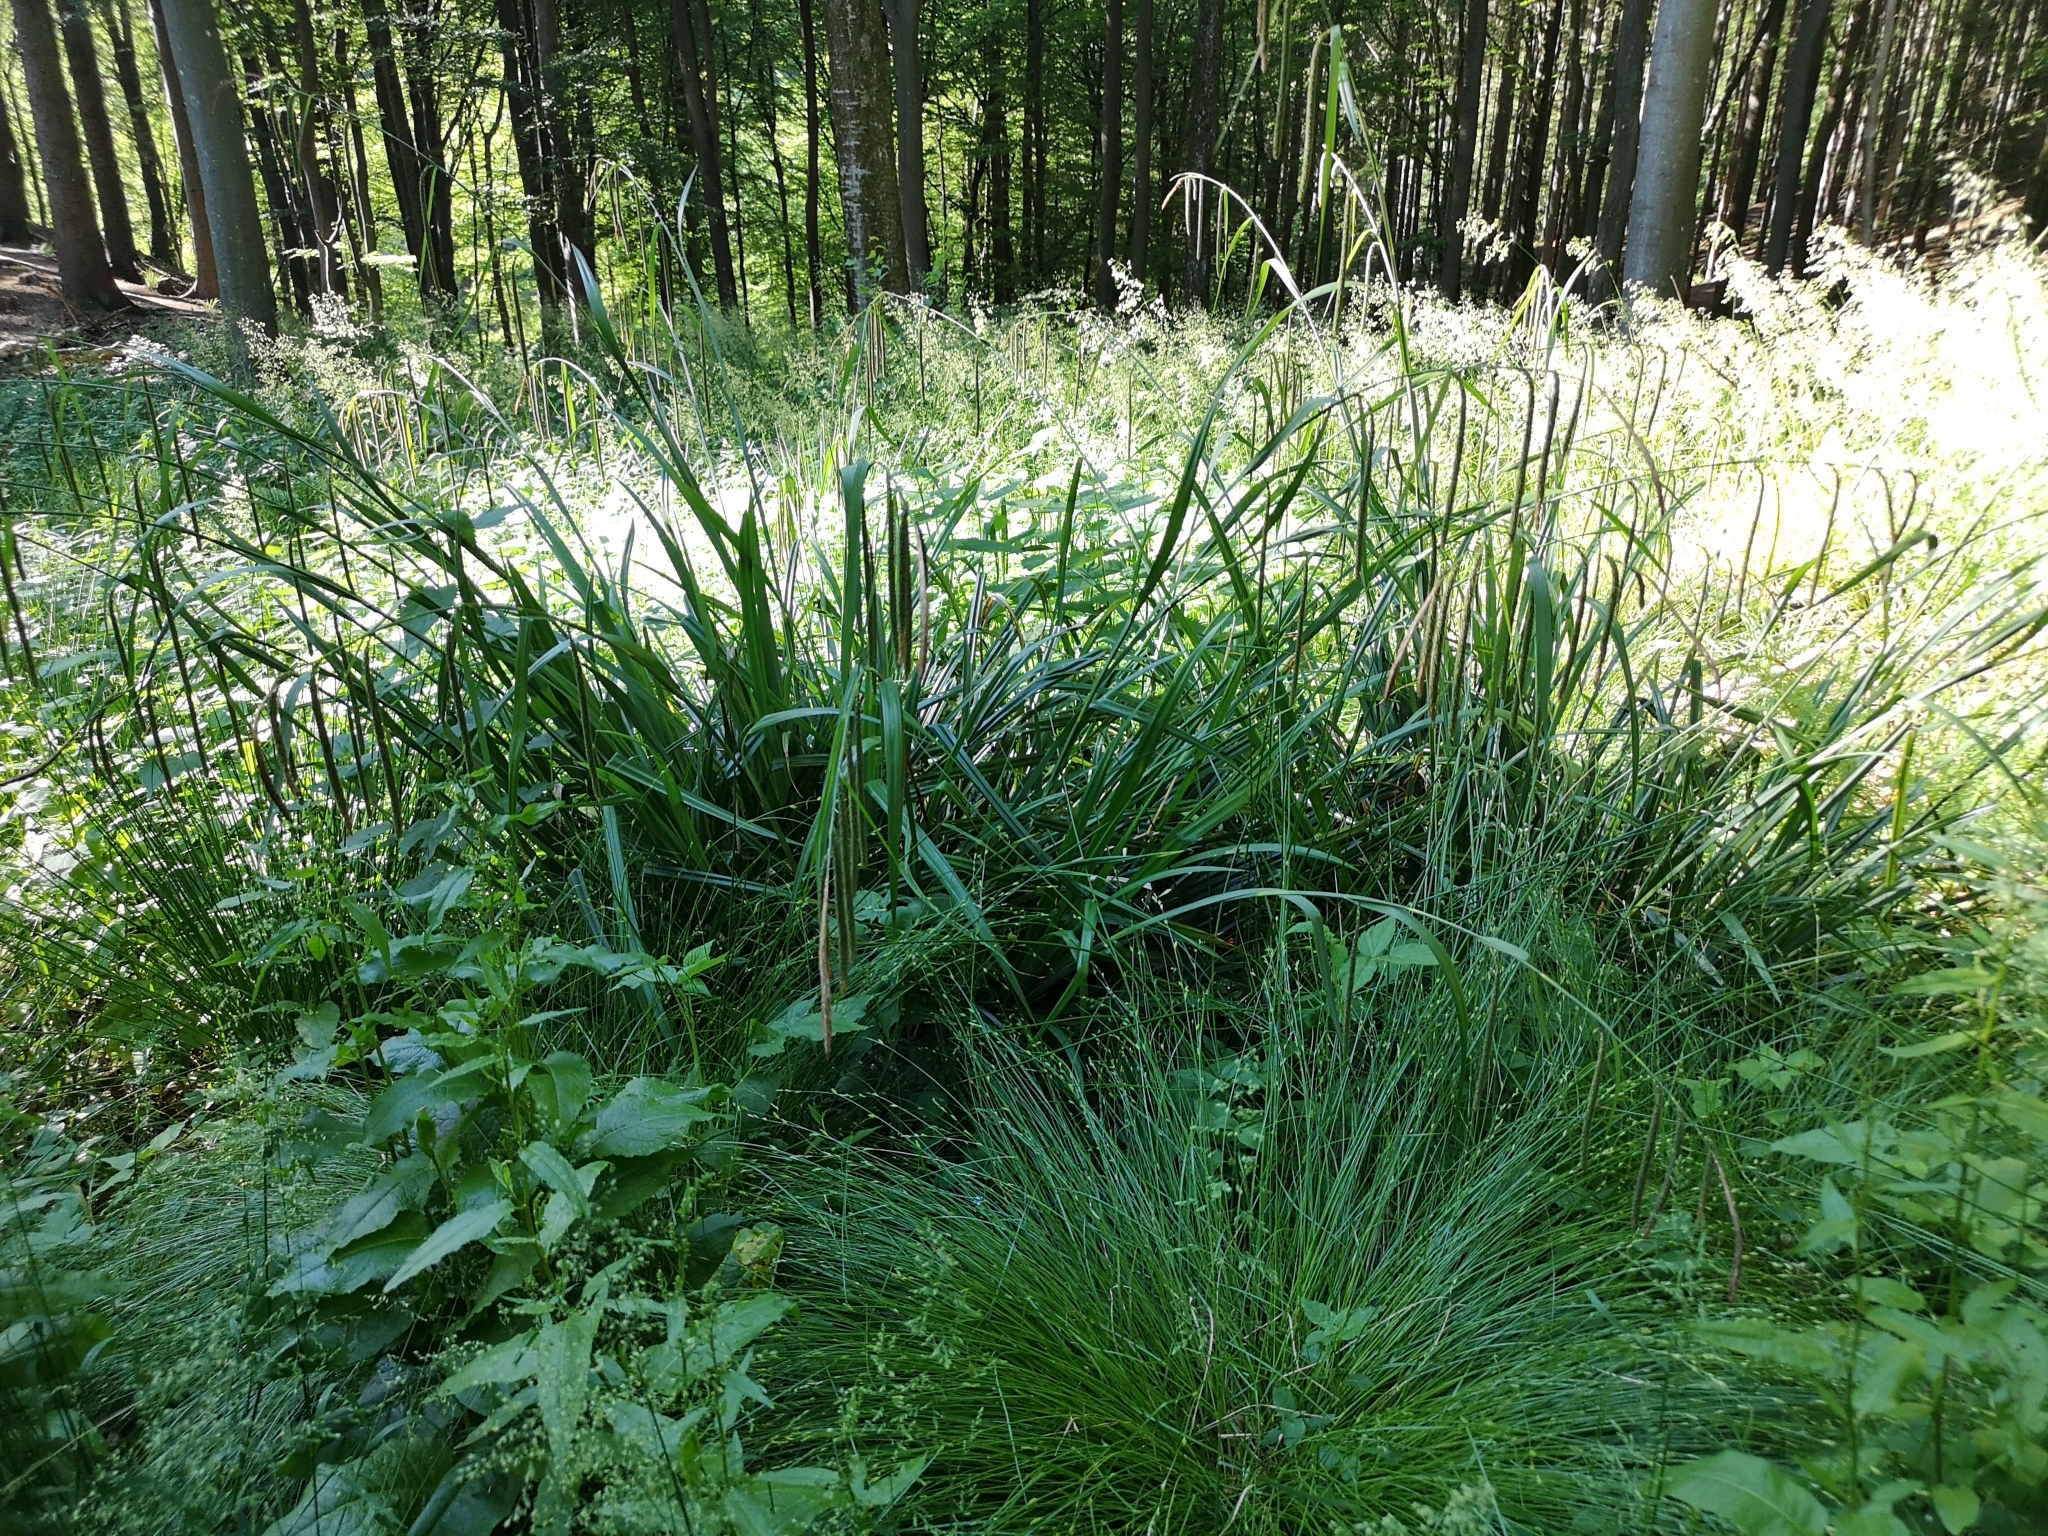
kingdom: Plantae
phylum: Tracheophyta
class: Liliopsida
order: Poales
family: Cyperaceae
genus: Carex
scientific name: Carex pendula
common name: Pendulous sedge
